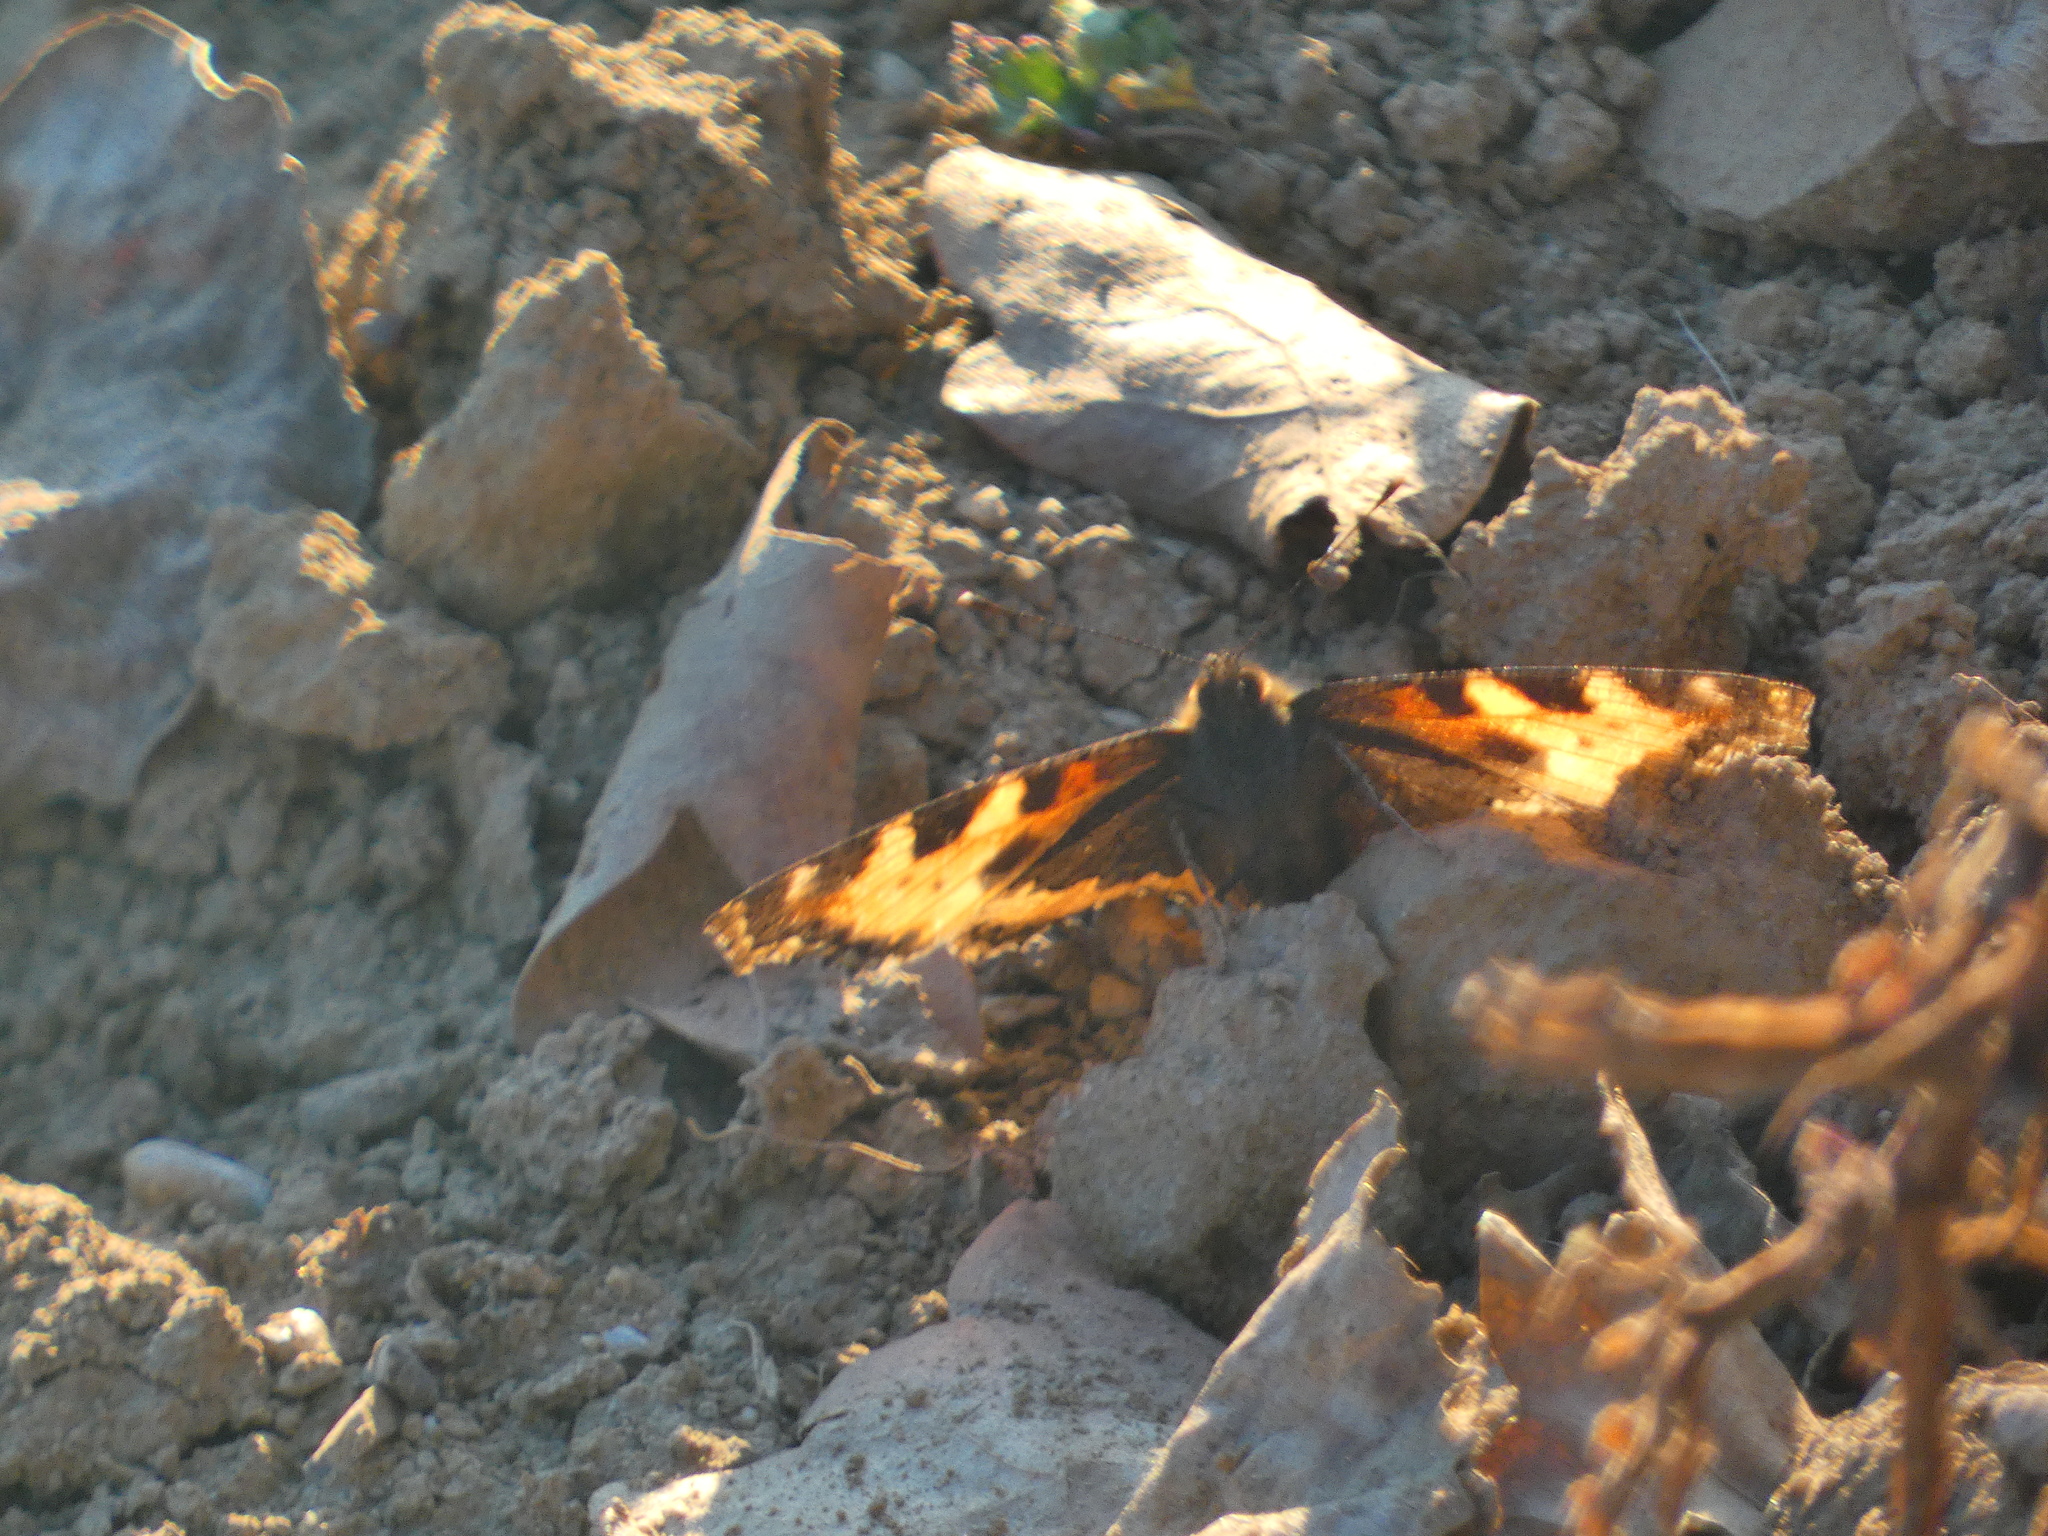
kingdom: Animalia
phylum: Arthropoda
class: Insecta
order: Lepidoptera
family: Nymphalidae
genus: Aglais
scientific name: Aglais urticae
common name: Small tortoiseshell
